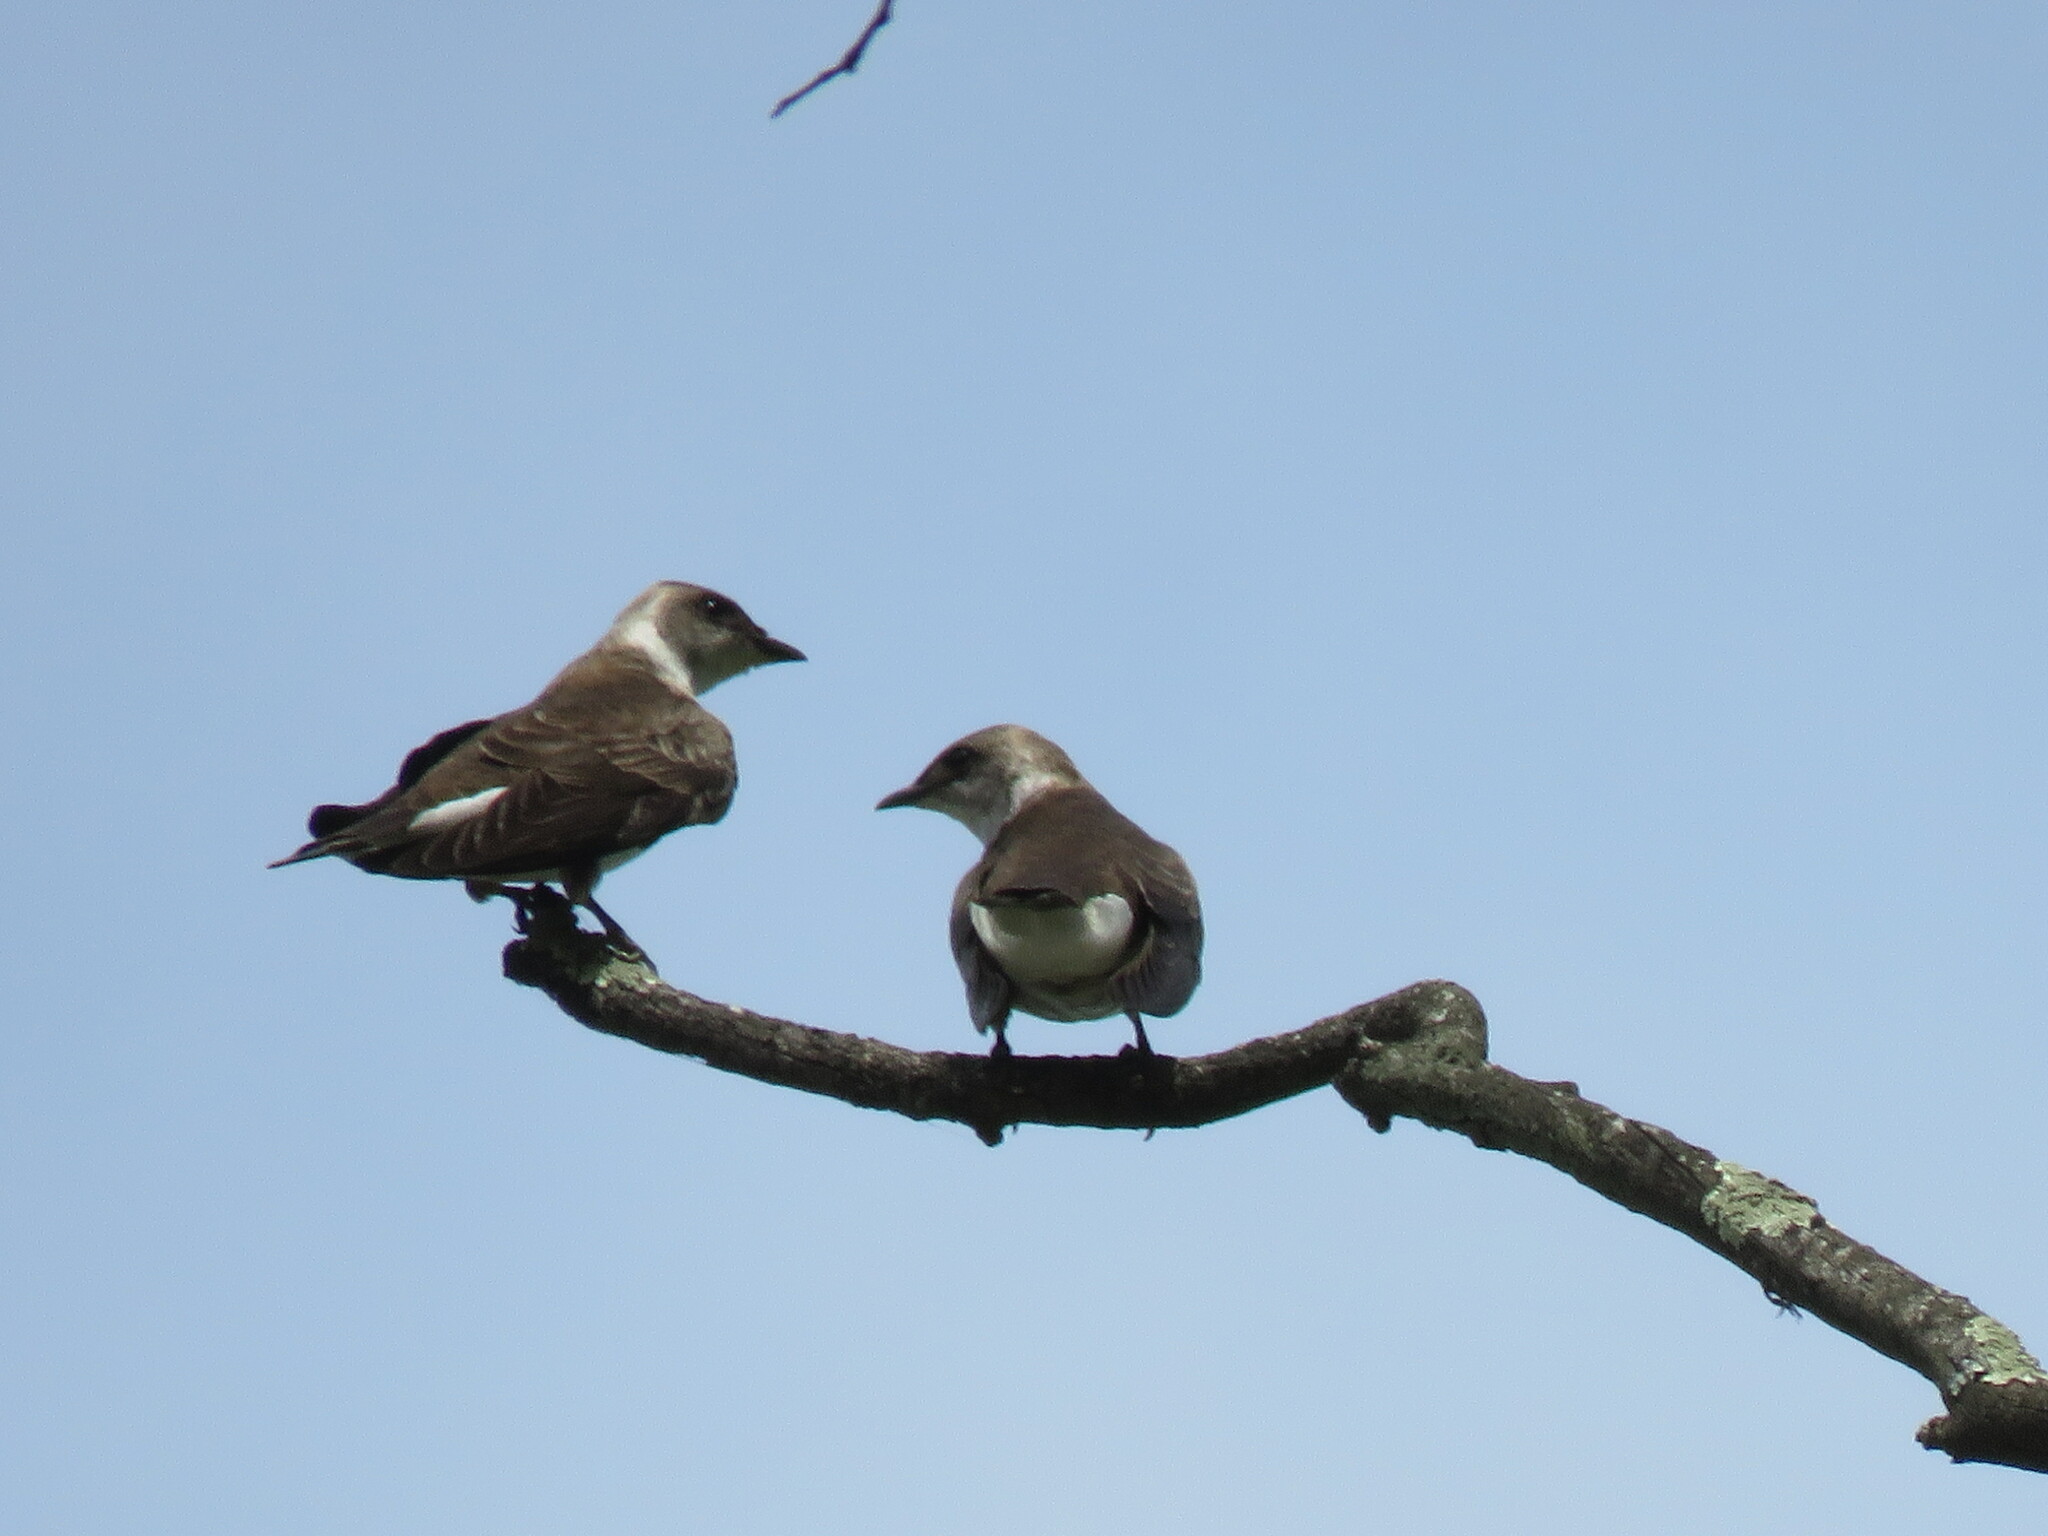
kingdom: Animalia
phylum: Chordata
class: Aves
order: Passeriformes
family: Hirundinidae
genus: Progne
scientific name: Progne tapera
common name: Brown-chested martin
